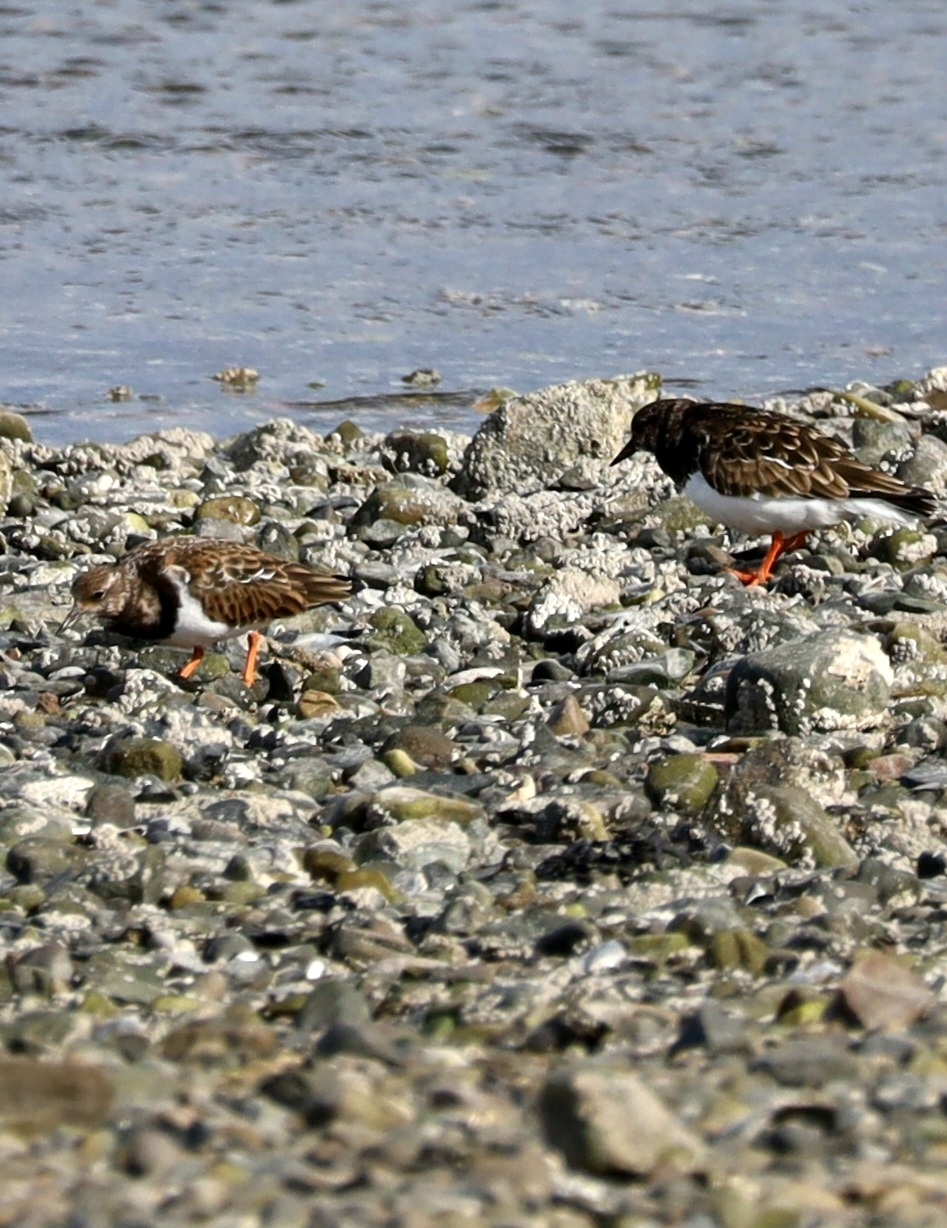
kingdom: Animalia
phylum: Chordata
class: Aves
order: Charadriiformes
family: Scolopacidae
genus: Arenaria
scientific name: Arenaria interpres
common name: Ruddy turnstone
